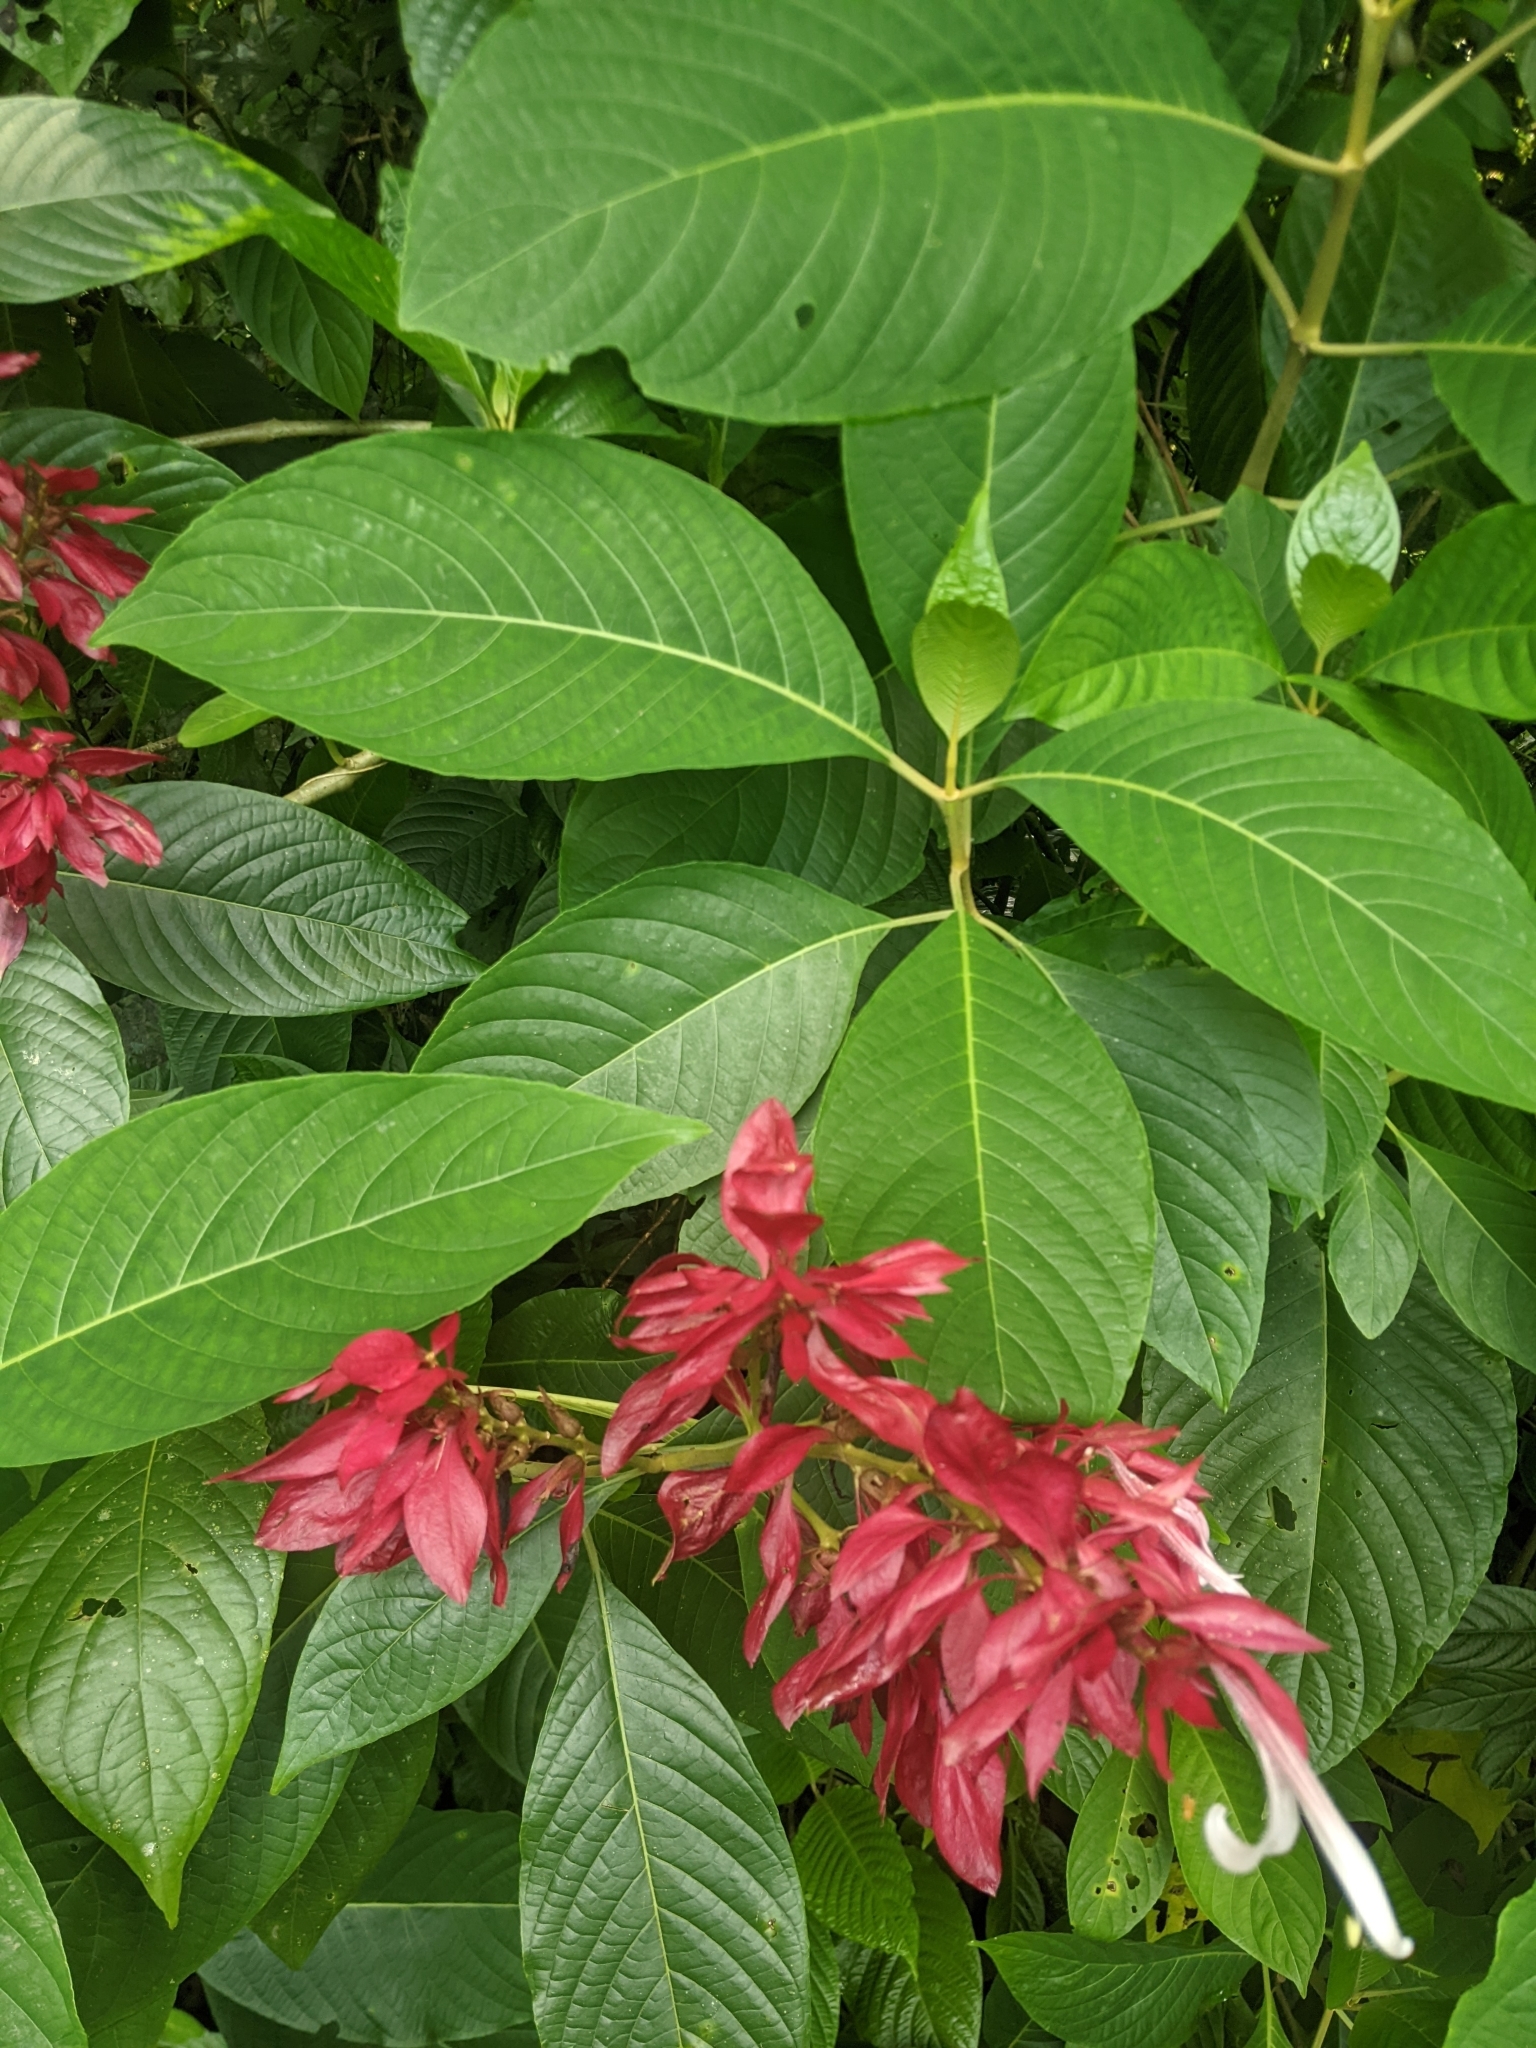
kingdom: Plantae
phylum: Tracheophyta
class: Magnoliopsida
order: Lamiales
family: Acanthaceae
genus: Megaskepasma
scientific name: Megaskepasma erythrochlamys
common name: Brazilian red-cloak
